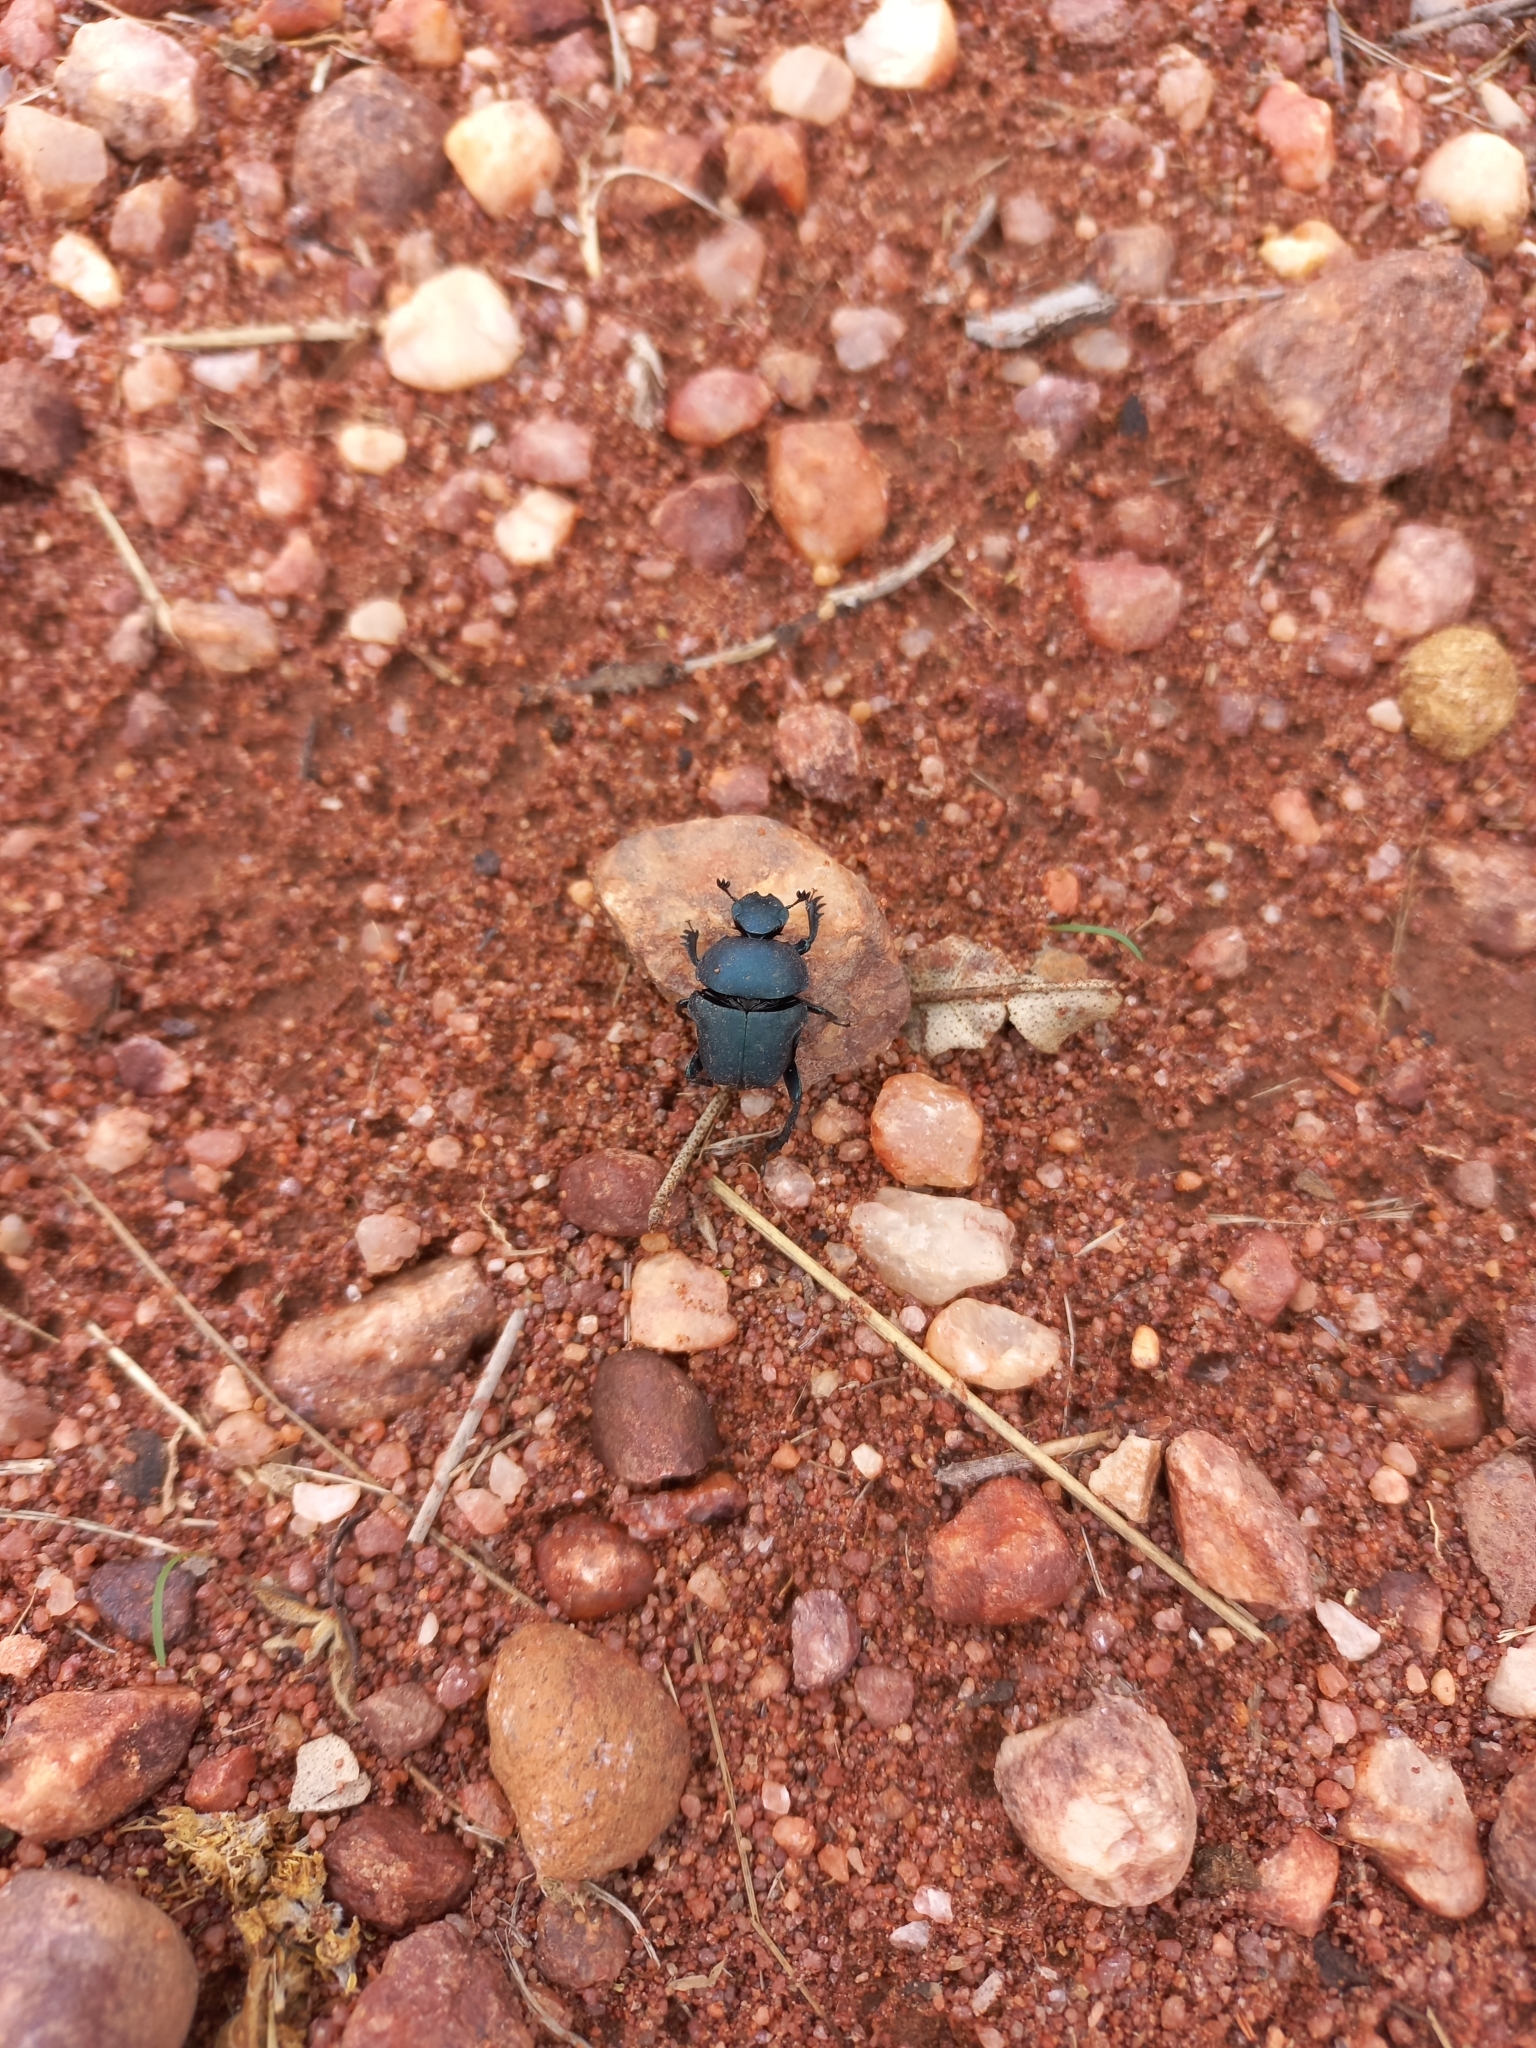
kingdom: Animalia
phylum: Arthropoda
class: Insecta
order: Coleoptera
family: Scarabaeidae
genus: Gymnopleurus
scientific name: Gymnopleurus humeralis
